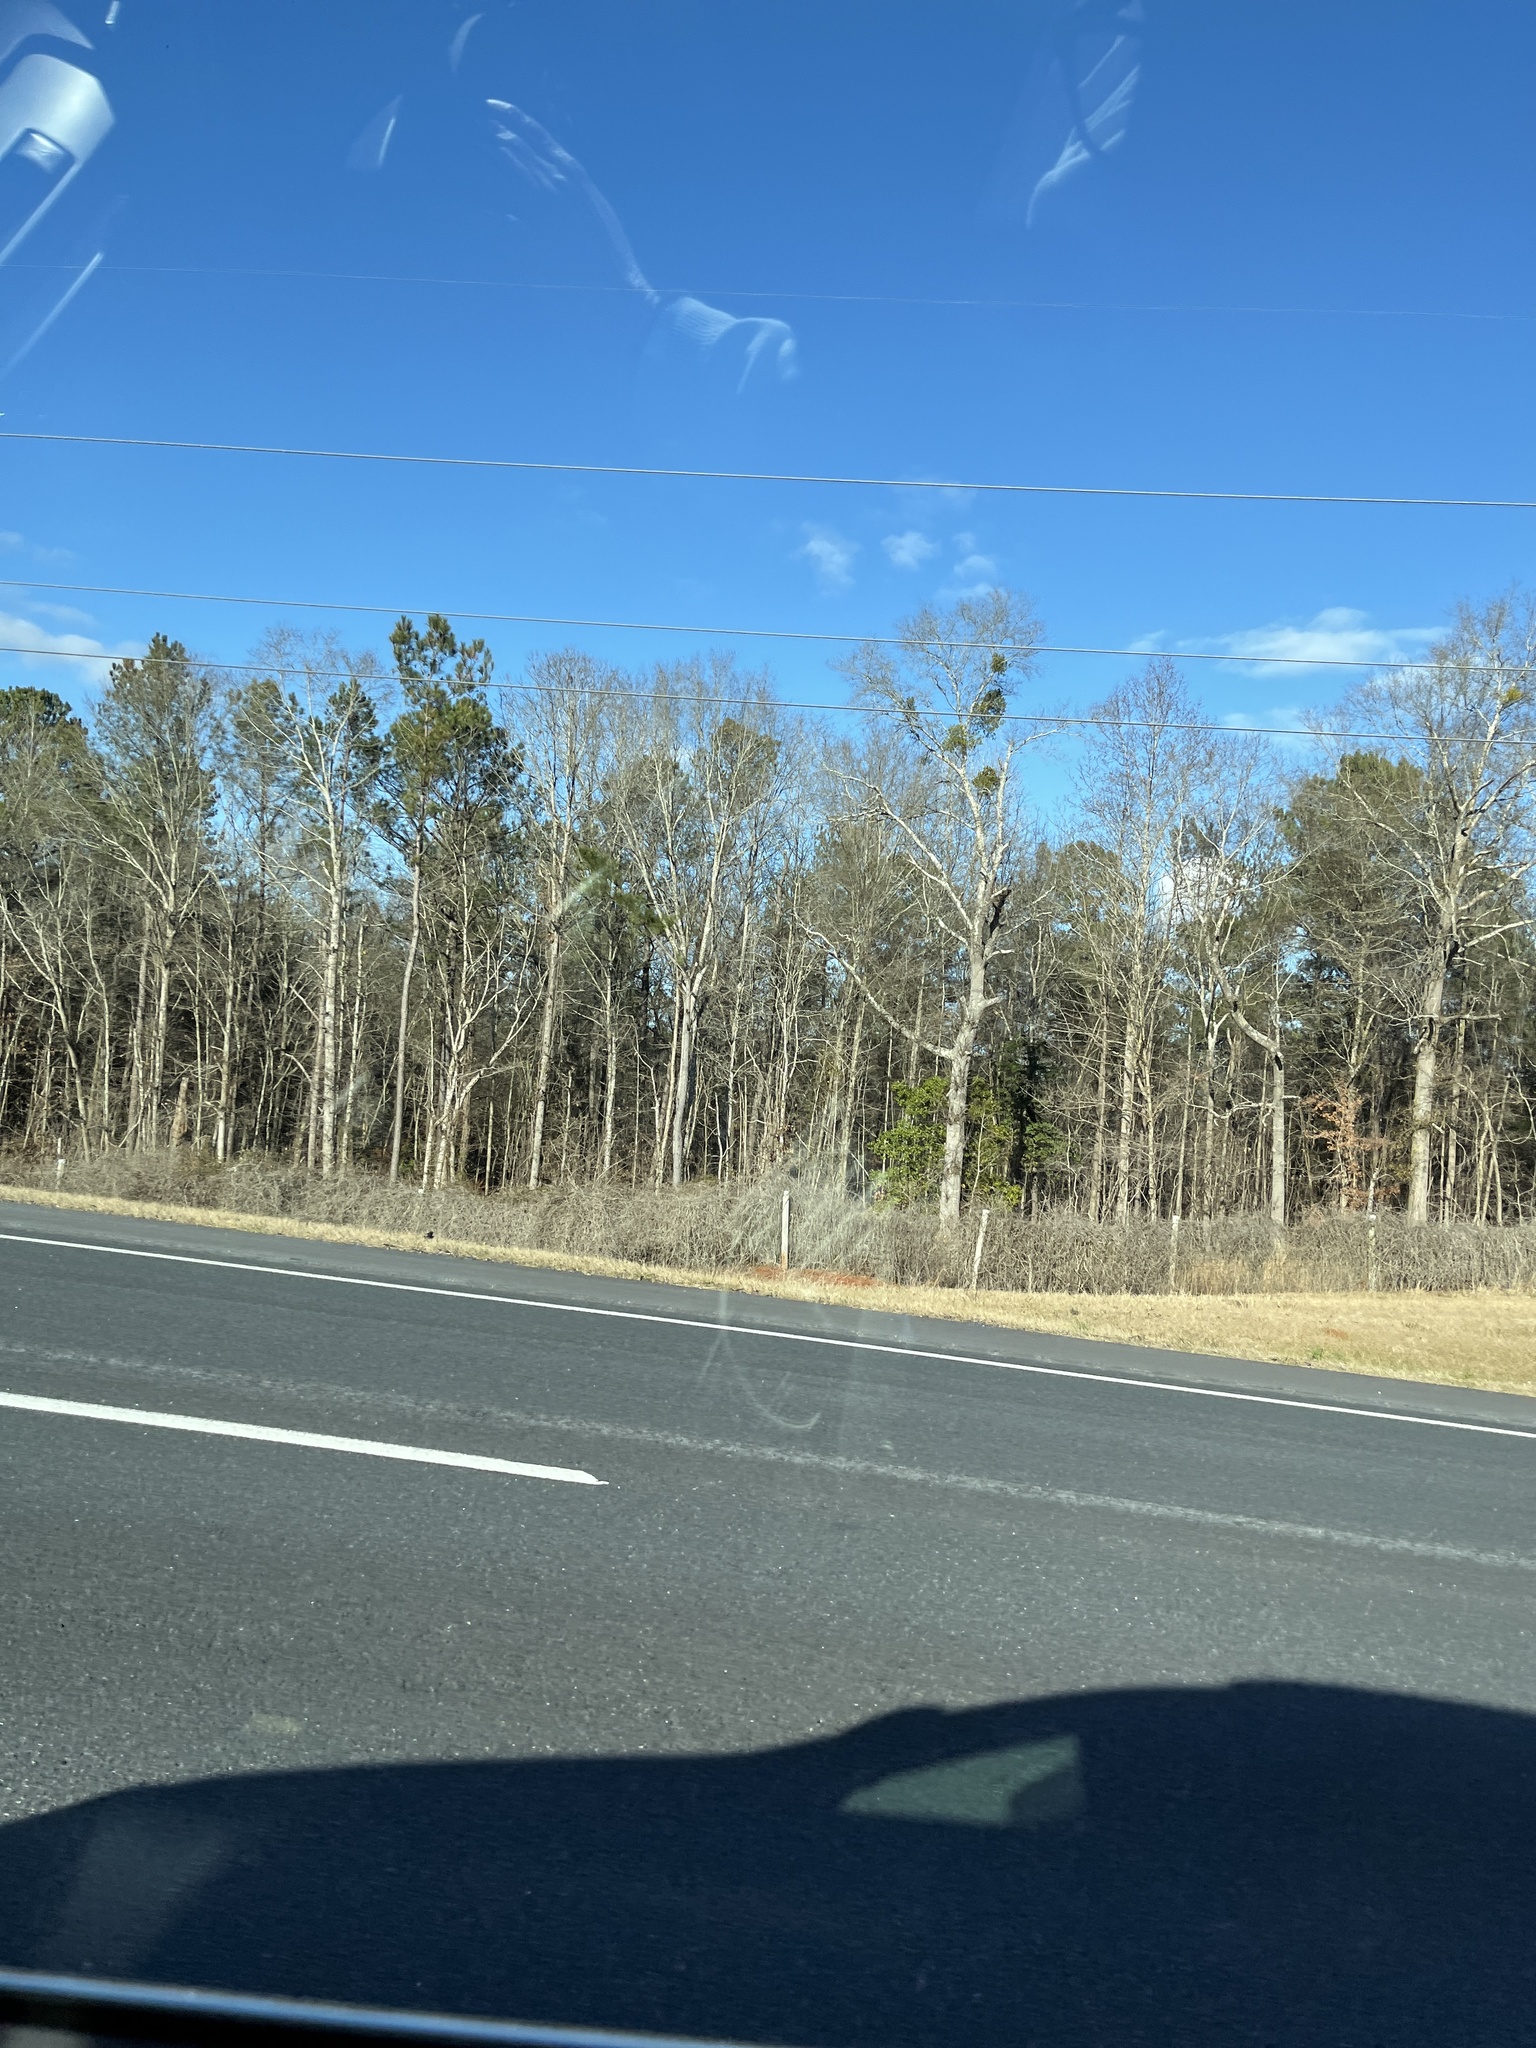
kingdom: Plantae
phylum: Tracheophyta
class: Magnoliopsida
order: Santalales
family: Viscaceae
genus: Phoradendron
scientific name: Phoradendron leucarpum
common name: Pacific mistletoe
